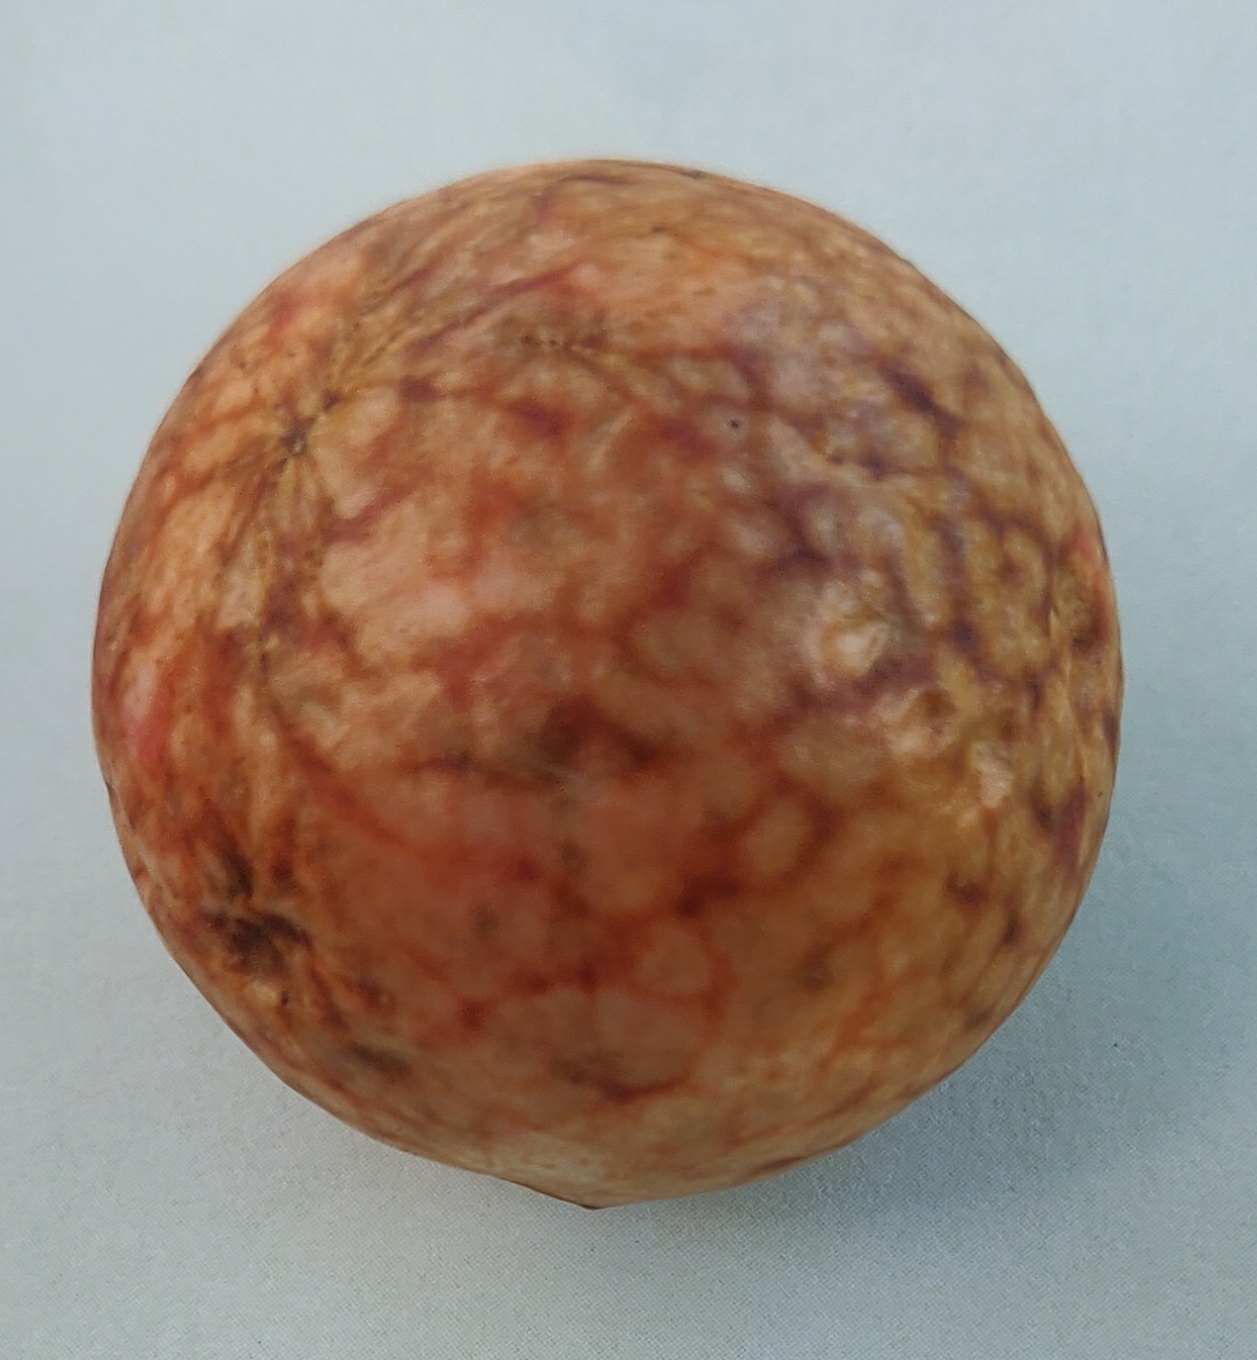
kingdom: Animalia
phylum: Arthropoda
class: Insecta
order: Hymenoptera
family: Cynipidae
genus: Amphibolips
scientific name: Amphibolips
